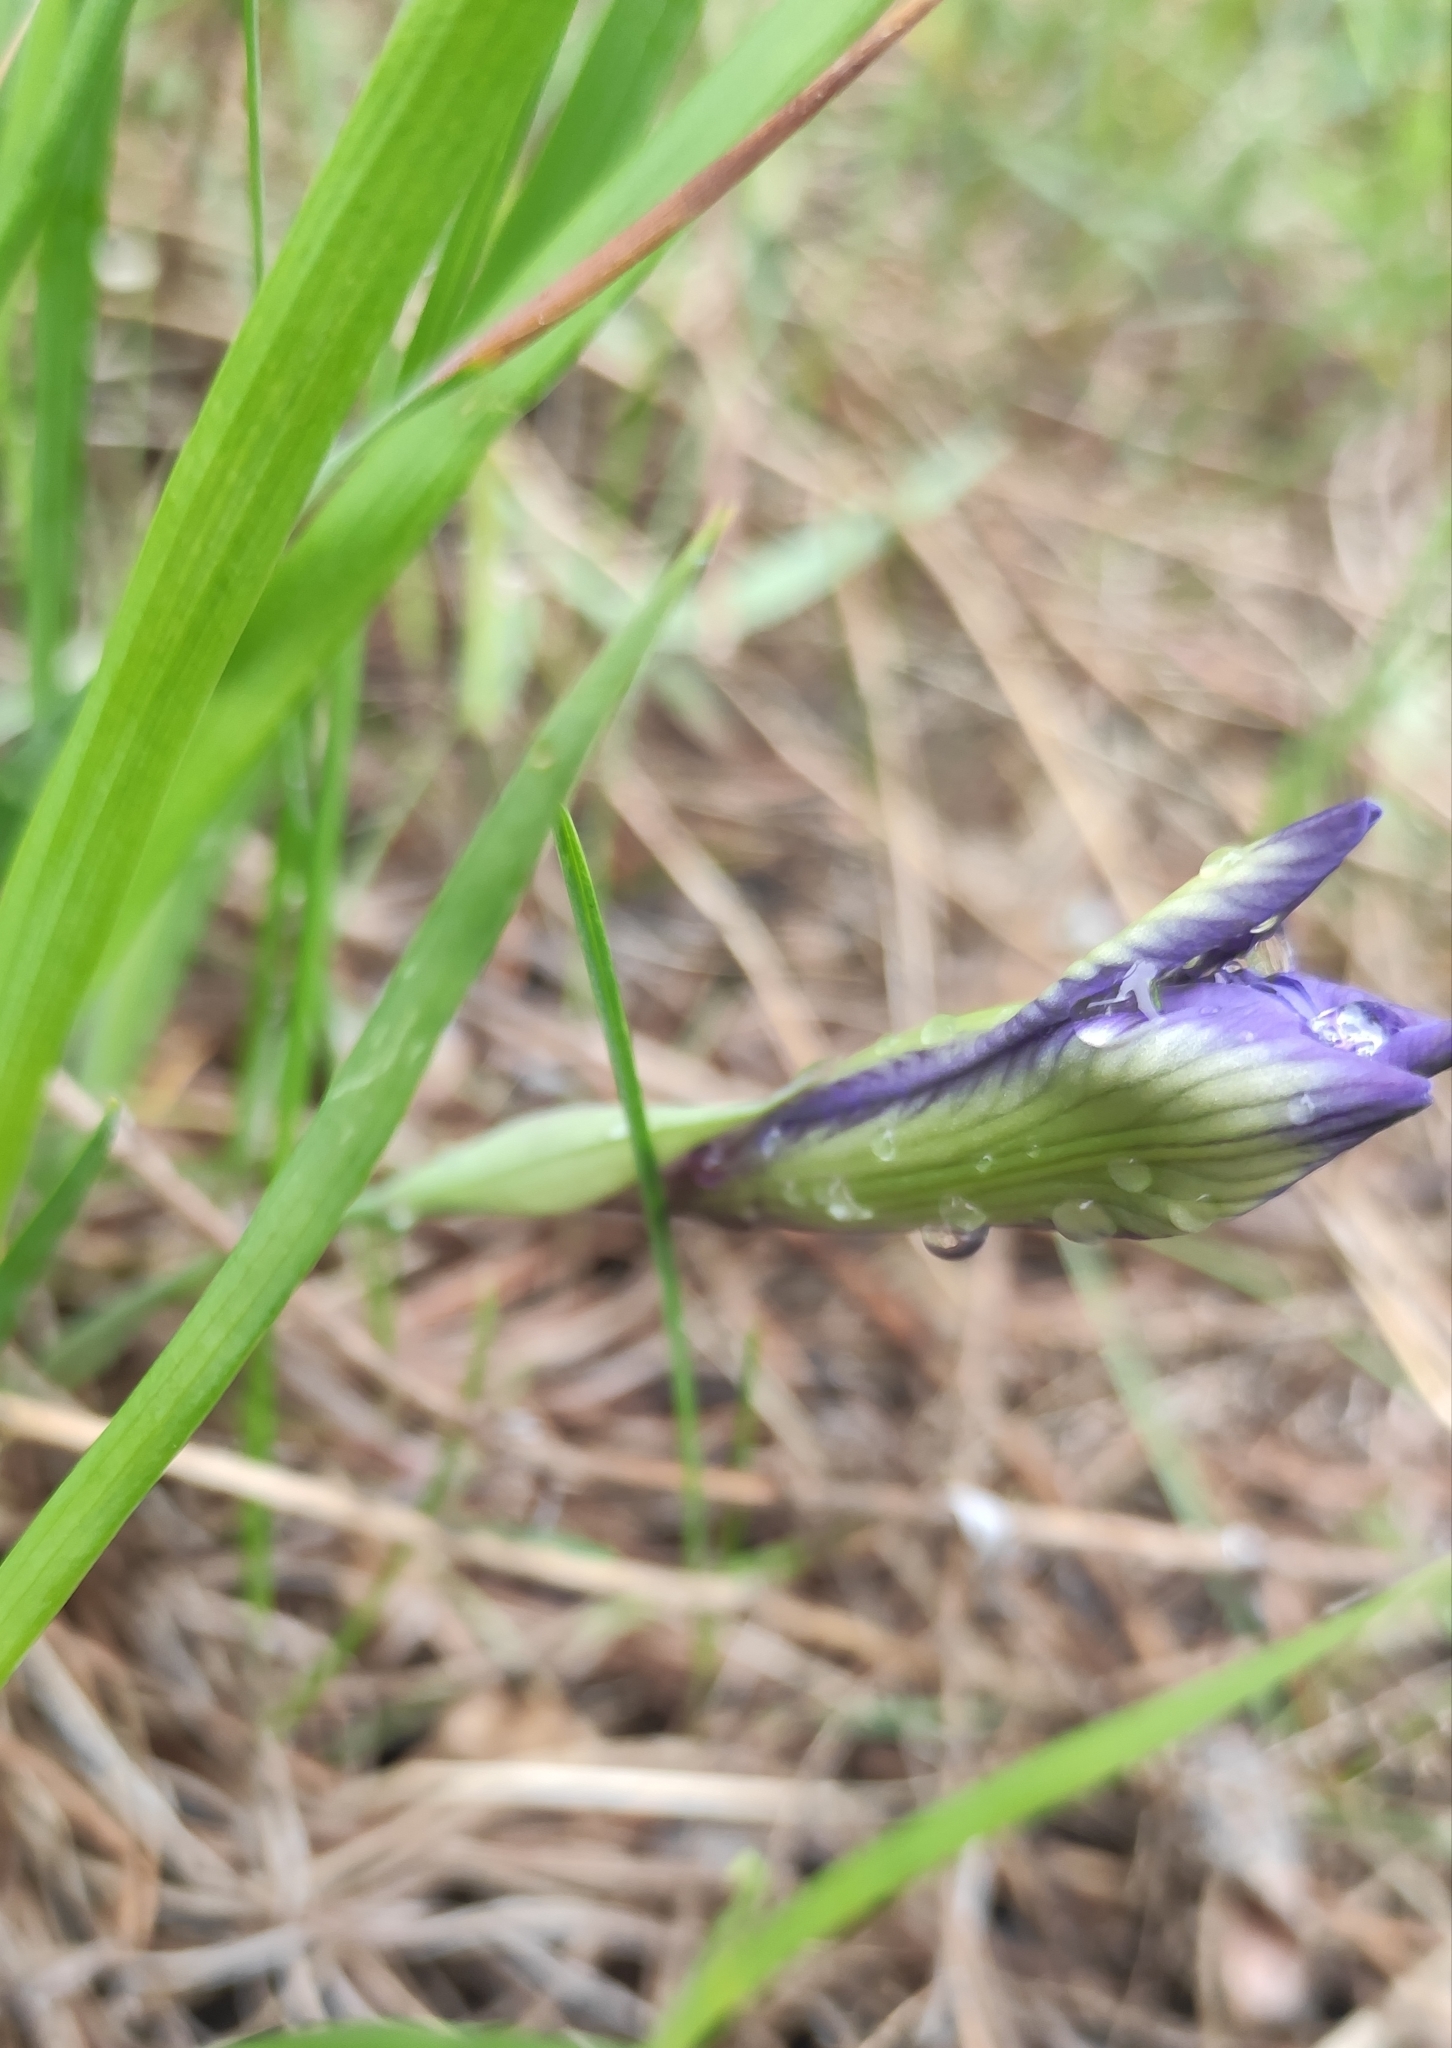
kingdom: Plantae
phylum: Tracheophyta
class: Liliopsida
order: Asparagales
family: Iridaceae
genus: Iris
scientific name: Iris ruthenica
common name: Purple-bract iris
